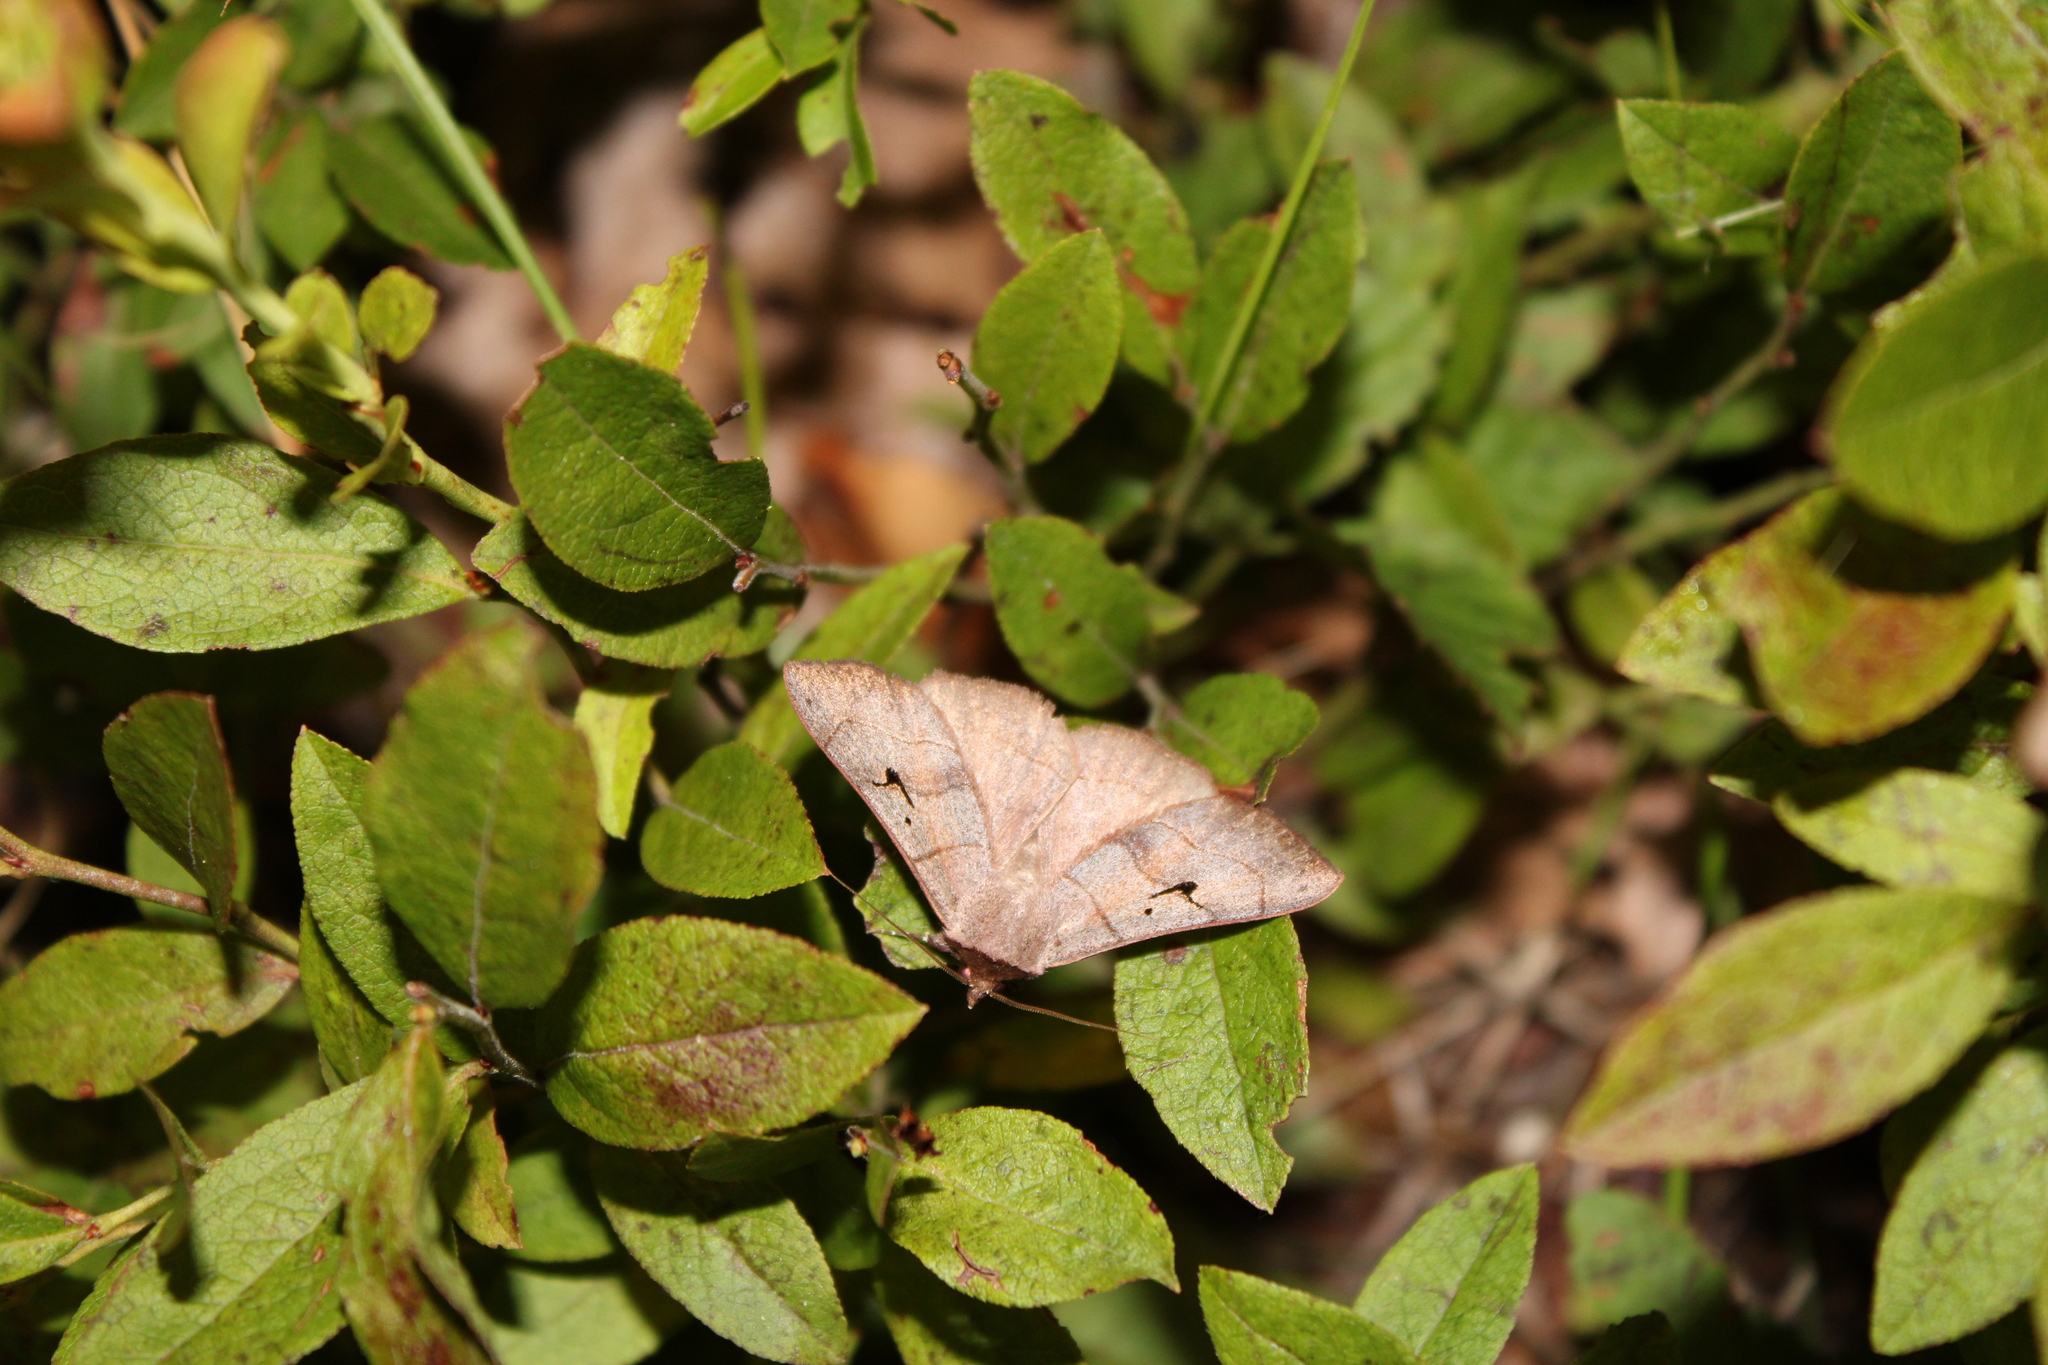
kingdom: Animalia
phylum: Arthropoda
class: Insecta
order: Lepidoptera
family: Erebidae
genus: Panopoda
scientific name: Panopoda carneicosta
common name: Brown panopoda moth
